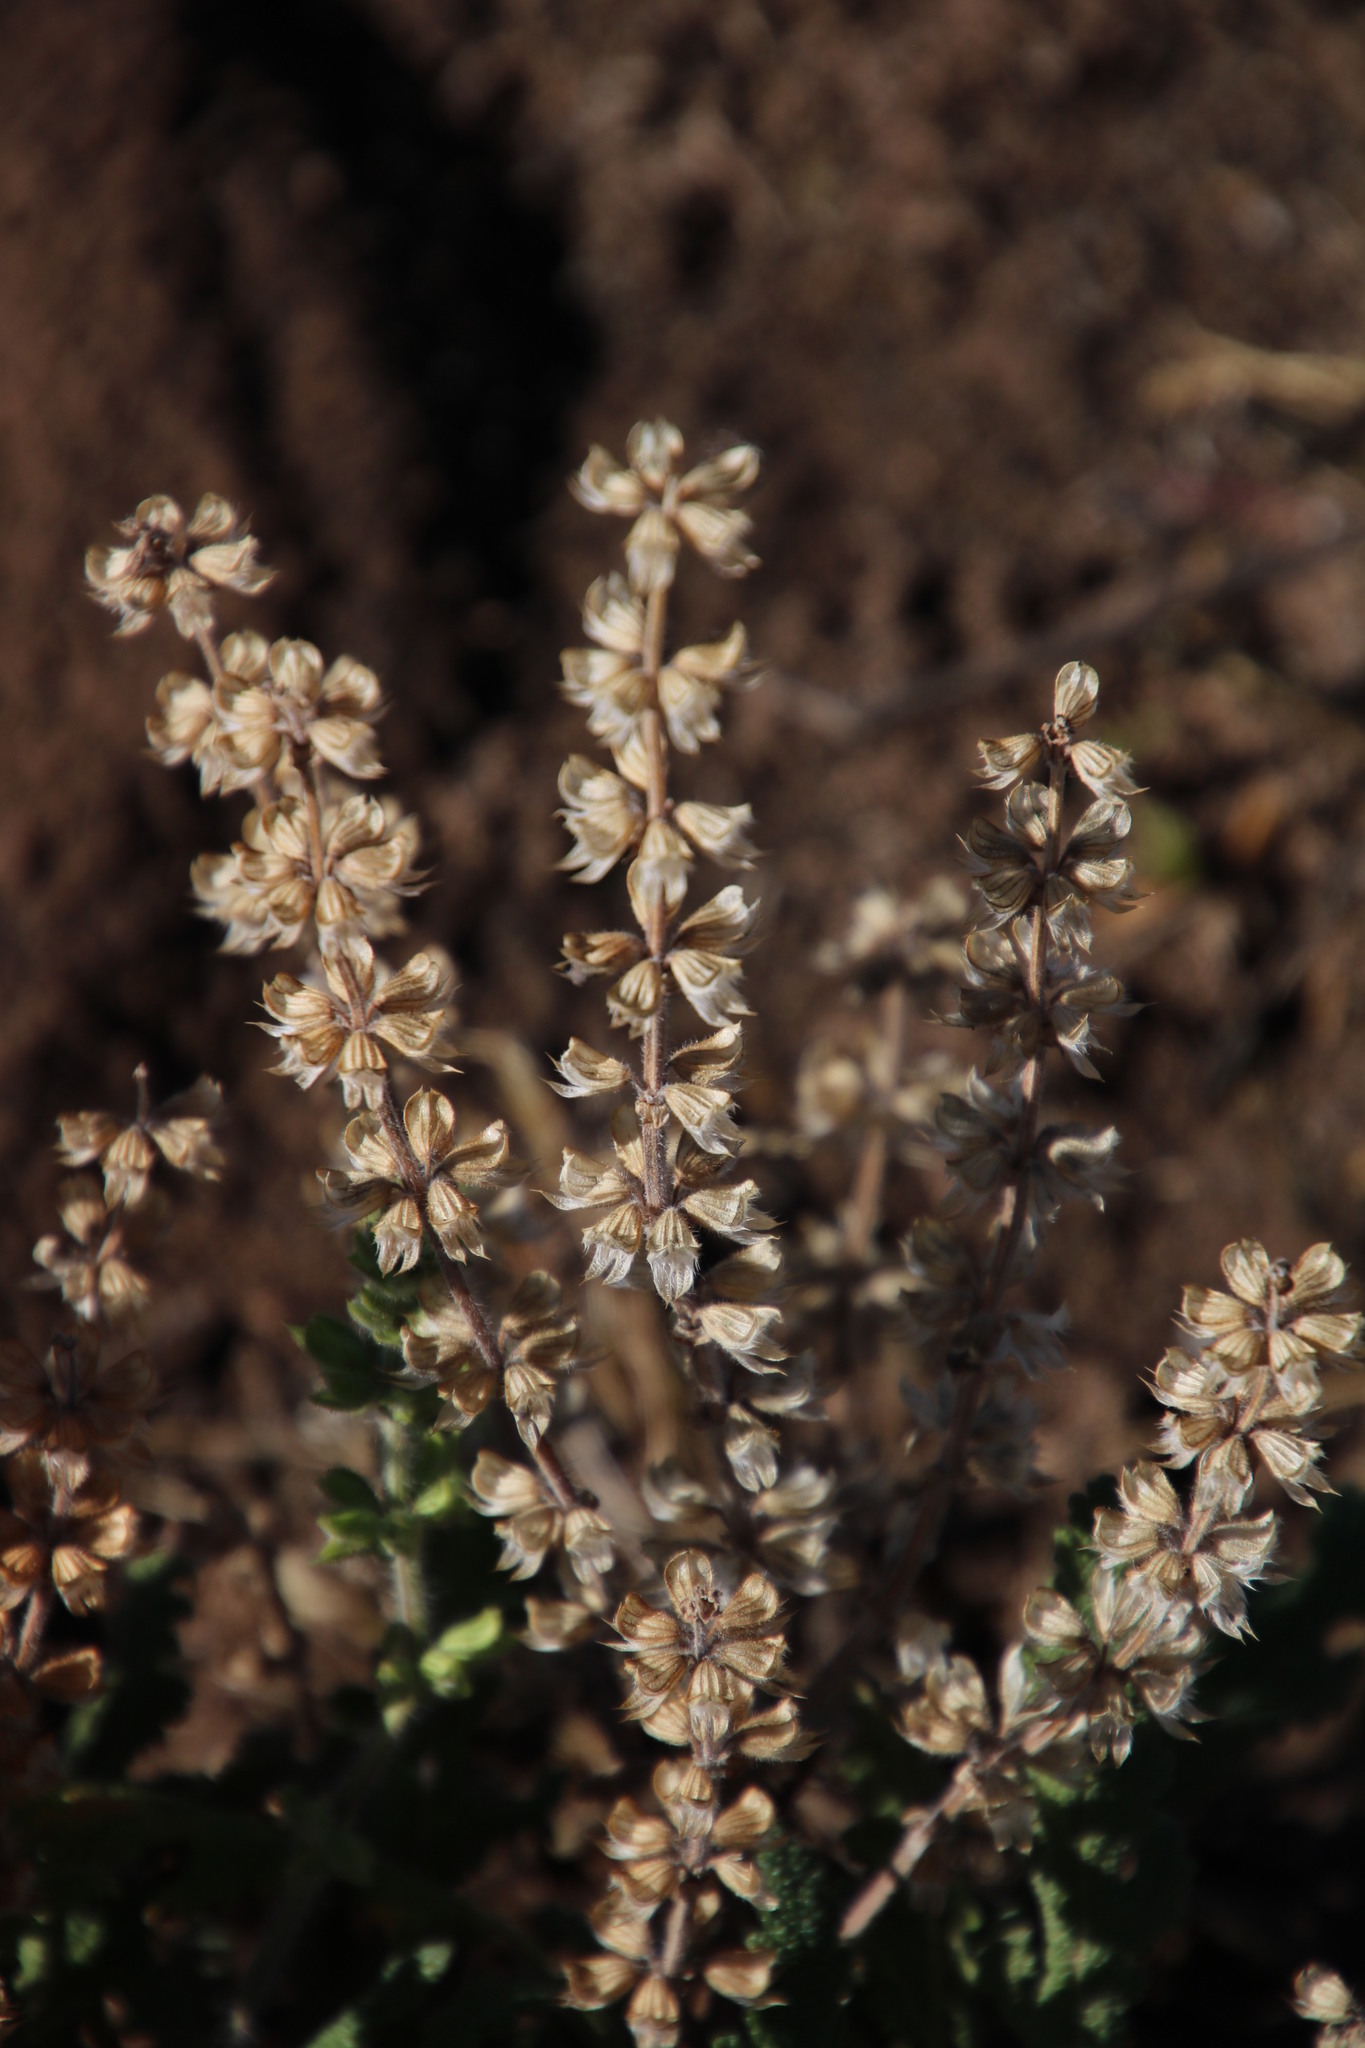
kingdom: Plantae
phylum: Tracheophyta
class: Magnoliopsida
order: Lamiales
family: Lamiaceae
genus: Salvia
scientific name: Salvia verbenaca
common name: Wild clary
